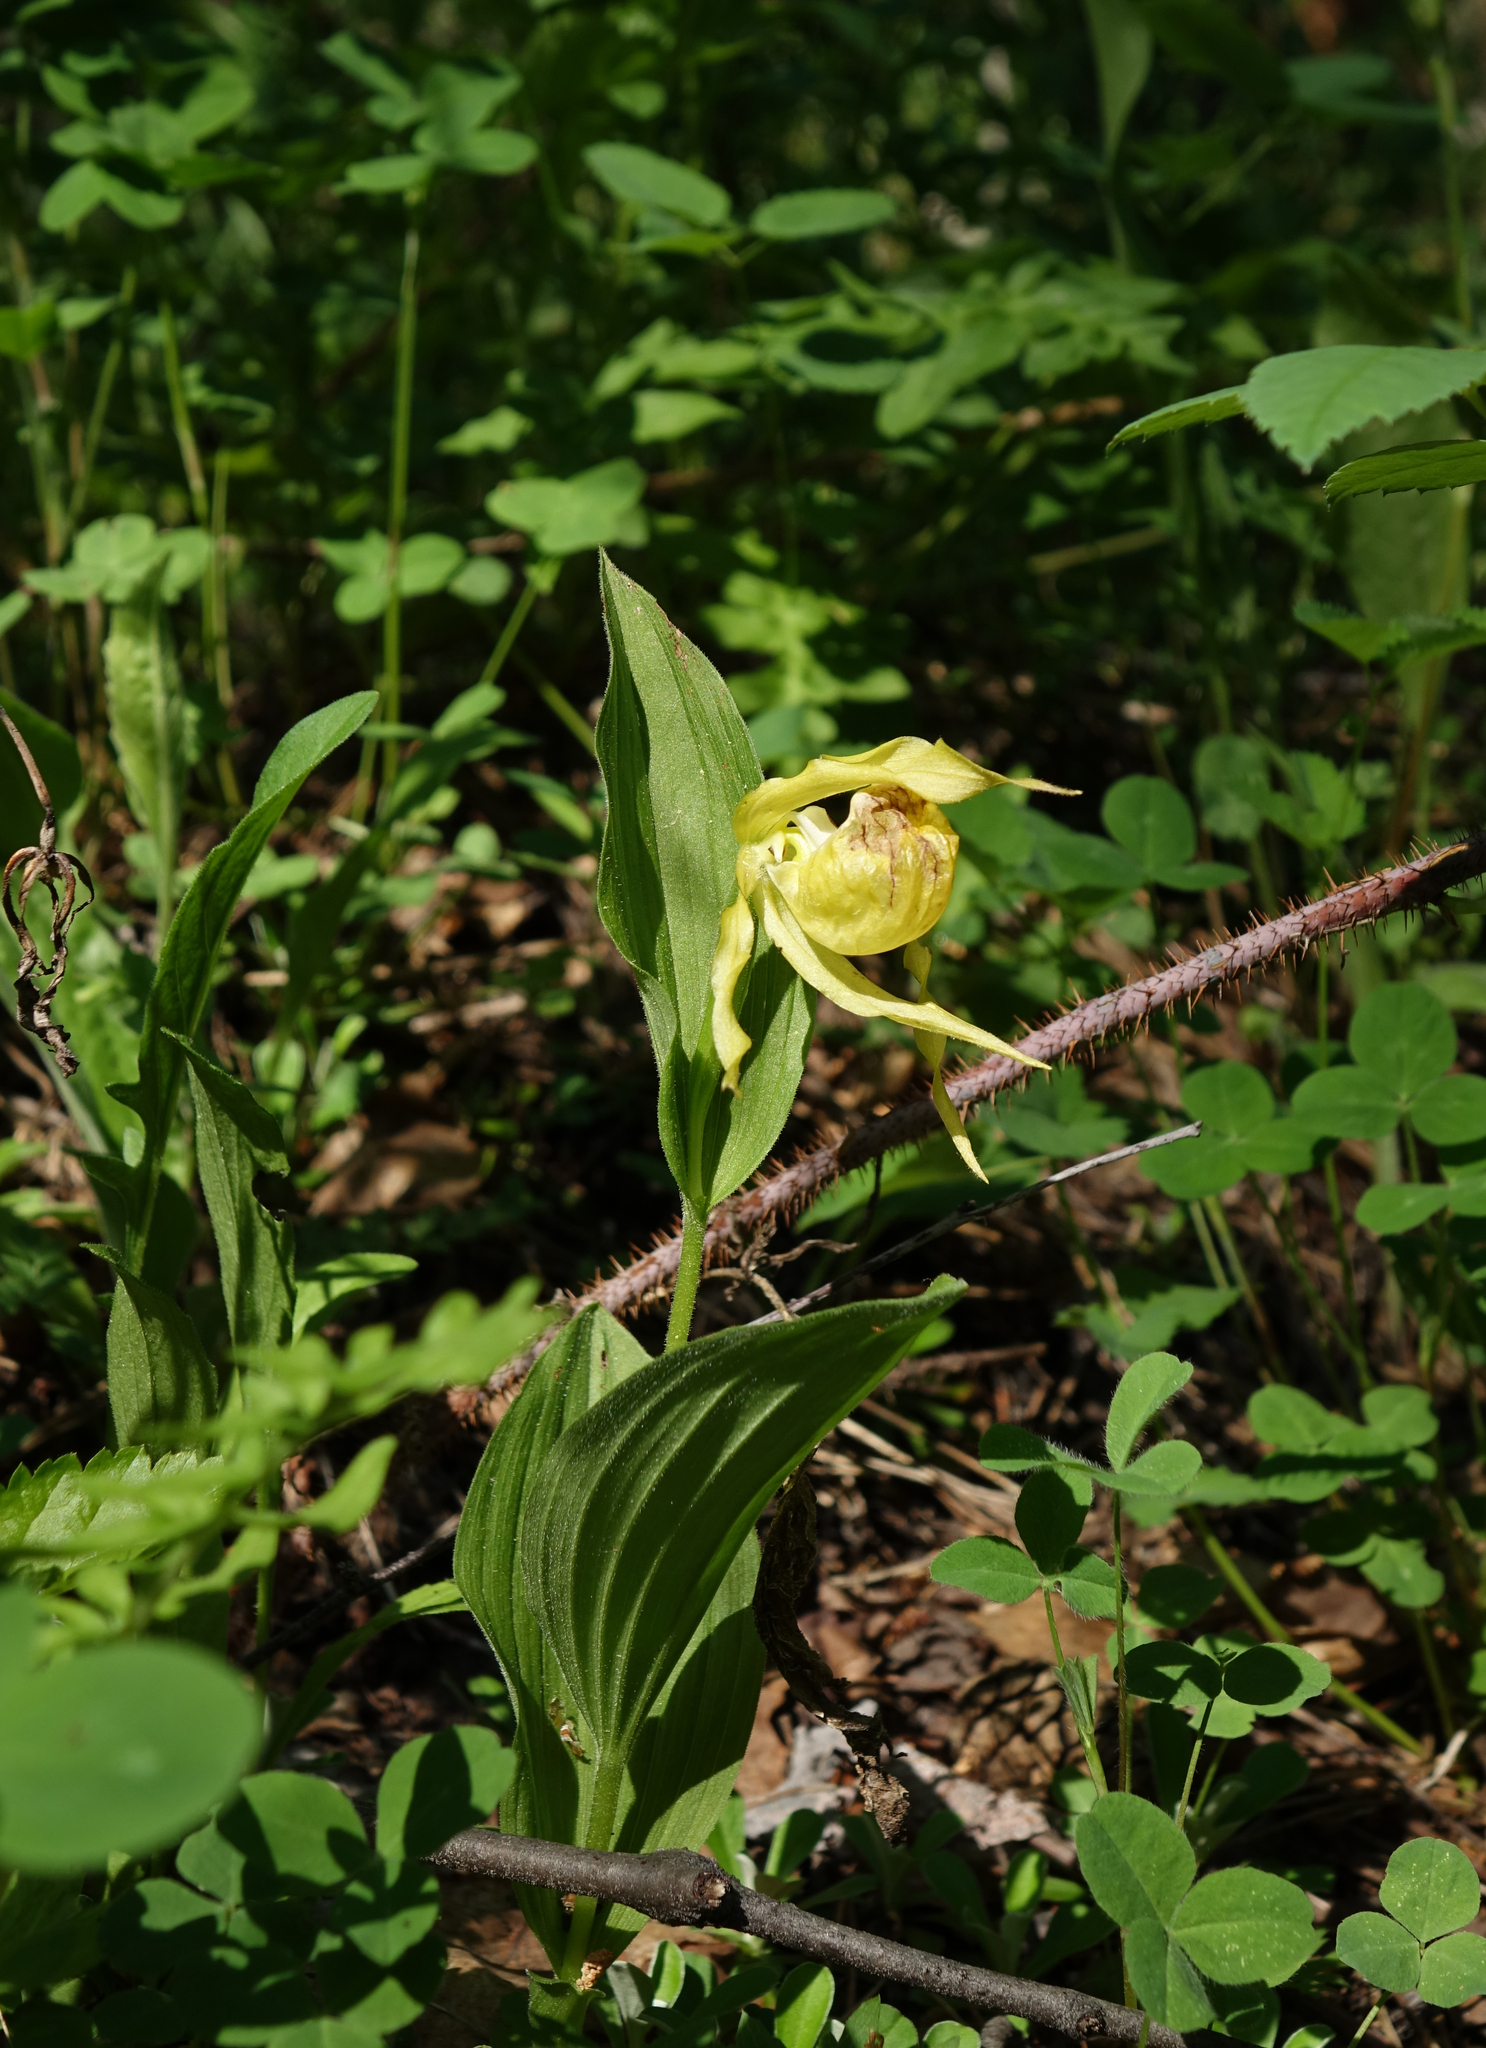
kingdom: Plantae
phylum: Tracheophyta
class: Liliopsida
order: Asparagales
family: Orchidaceae
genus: Cypripedium
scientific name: Cypripedium calceolus
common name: Lady's-slipper
